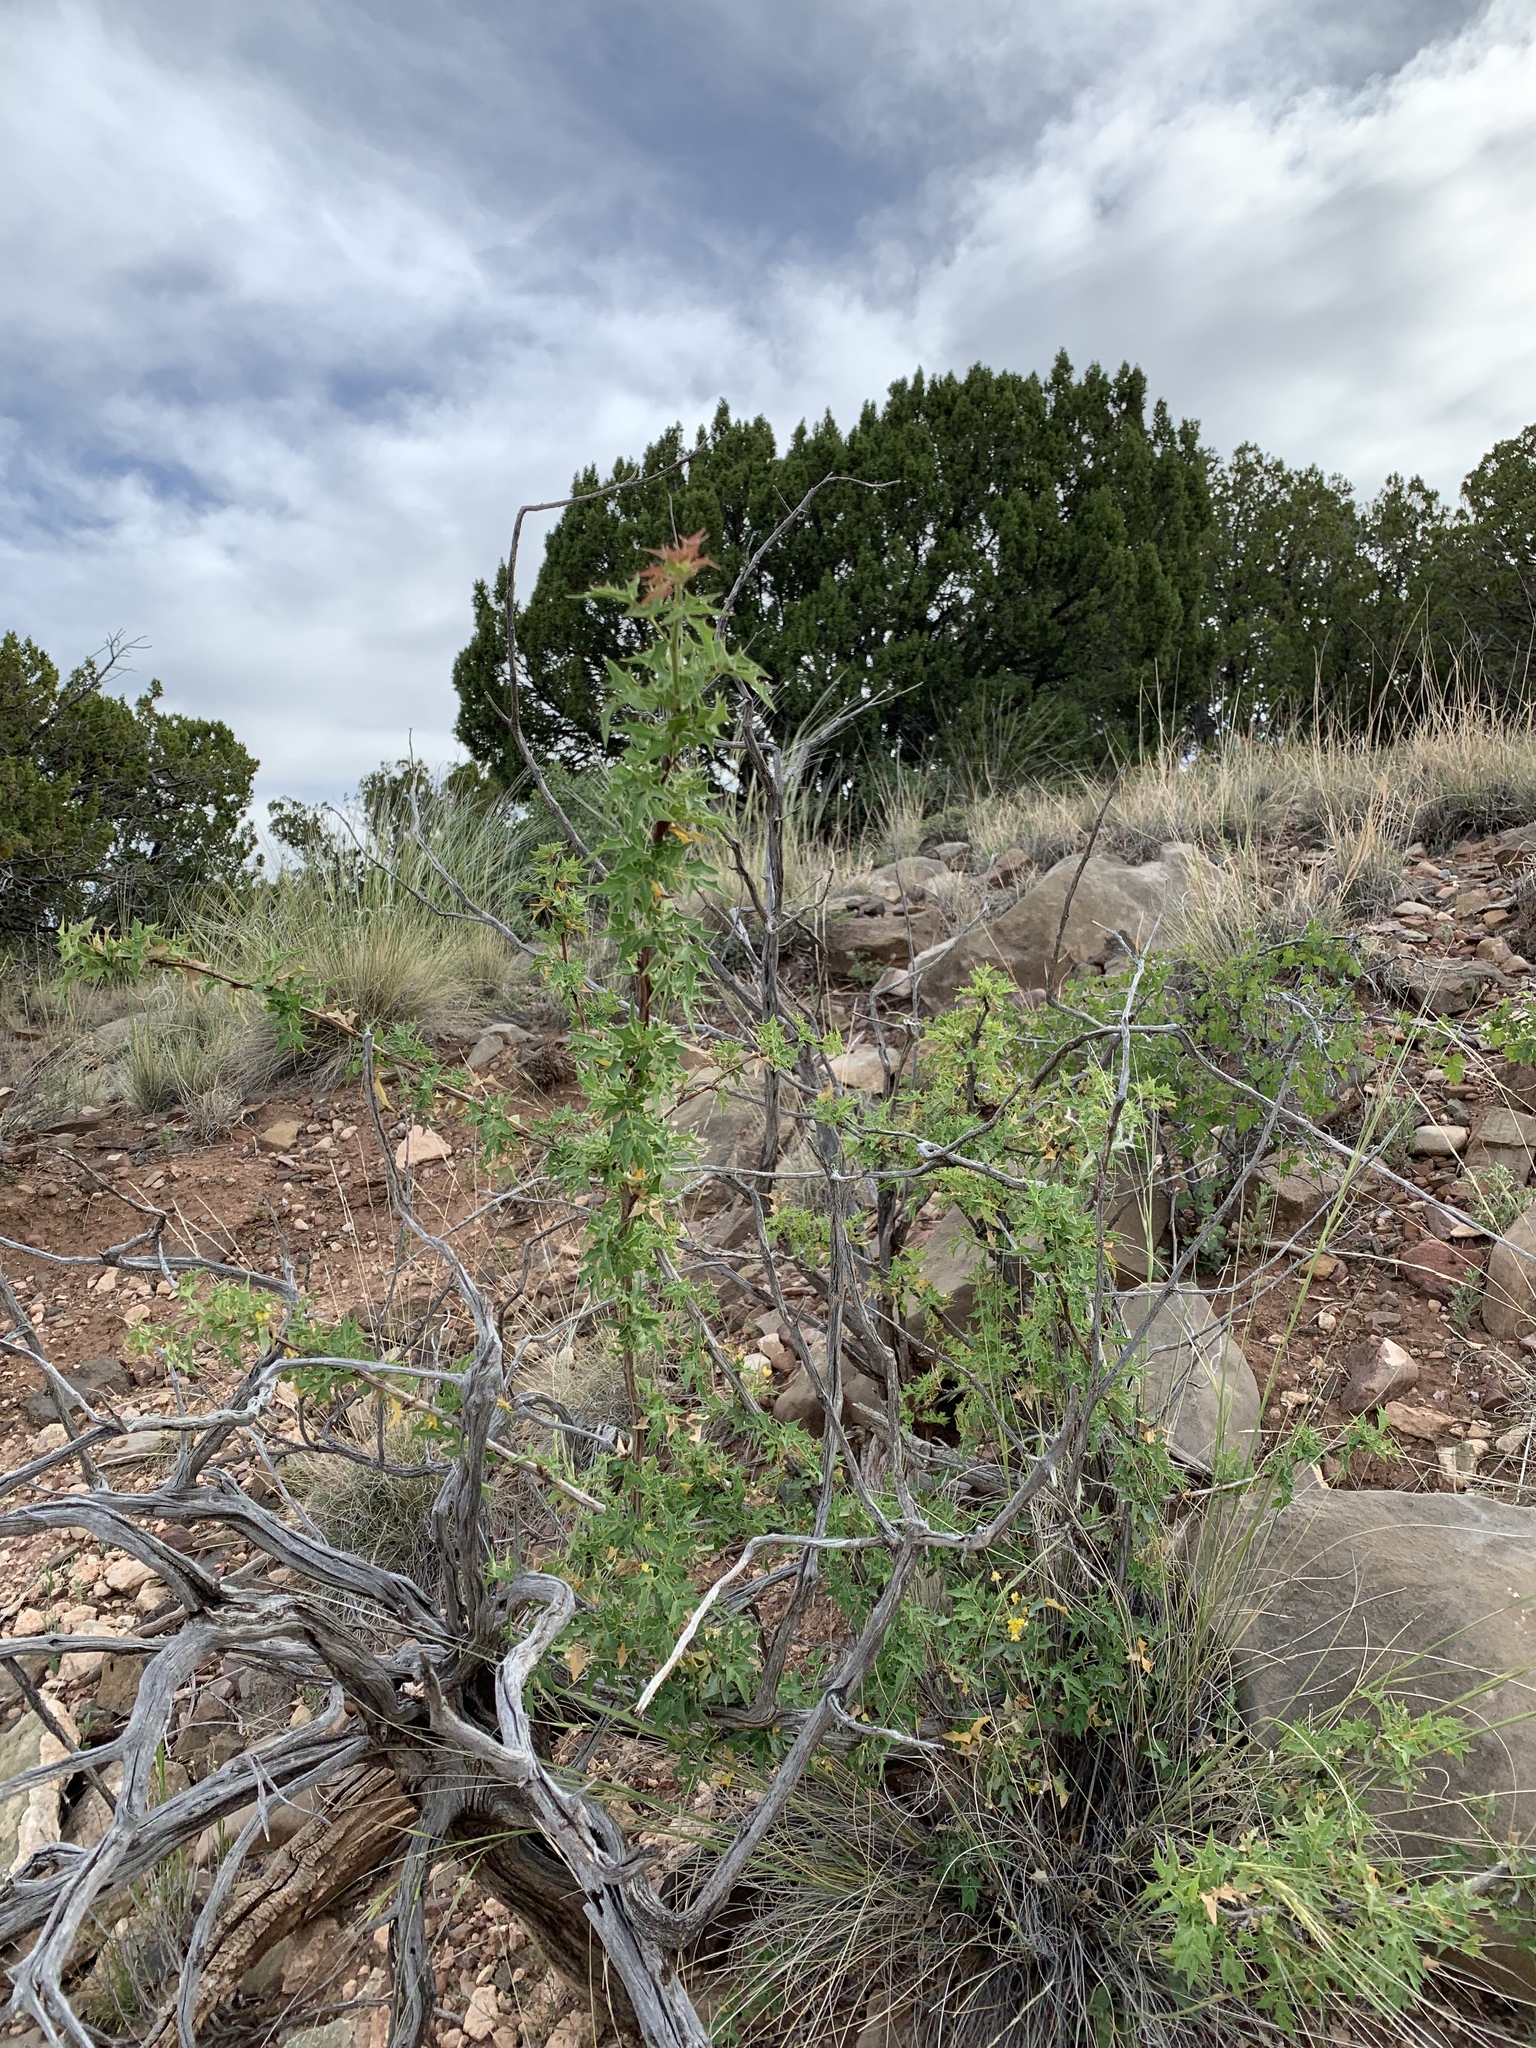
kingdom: Plantae
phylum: Tracheophyta
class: Magnoliopsida
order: Ranunculales
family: Berberidaceae
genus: Alloberberis
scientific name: Alloberberis haematocarpa
